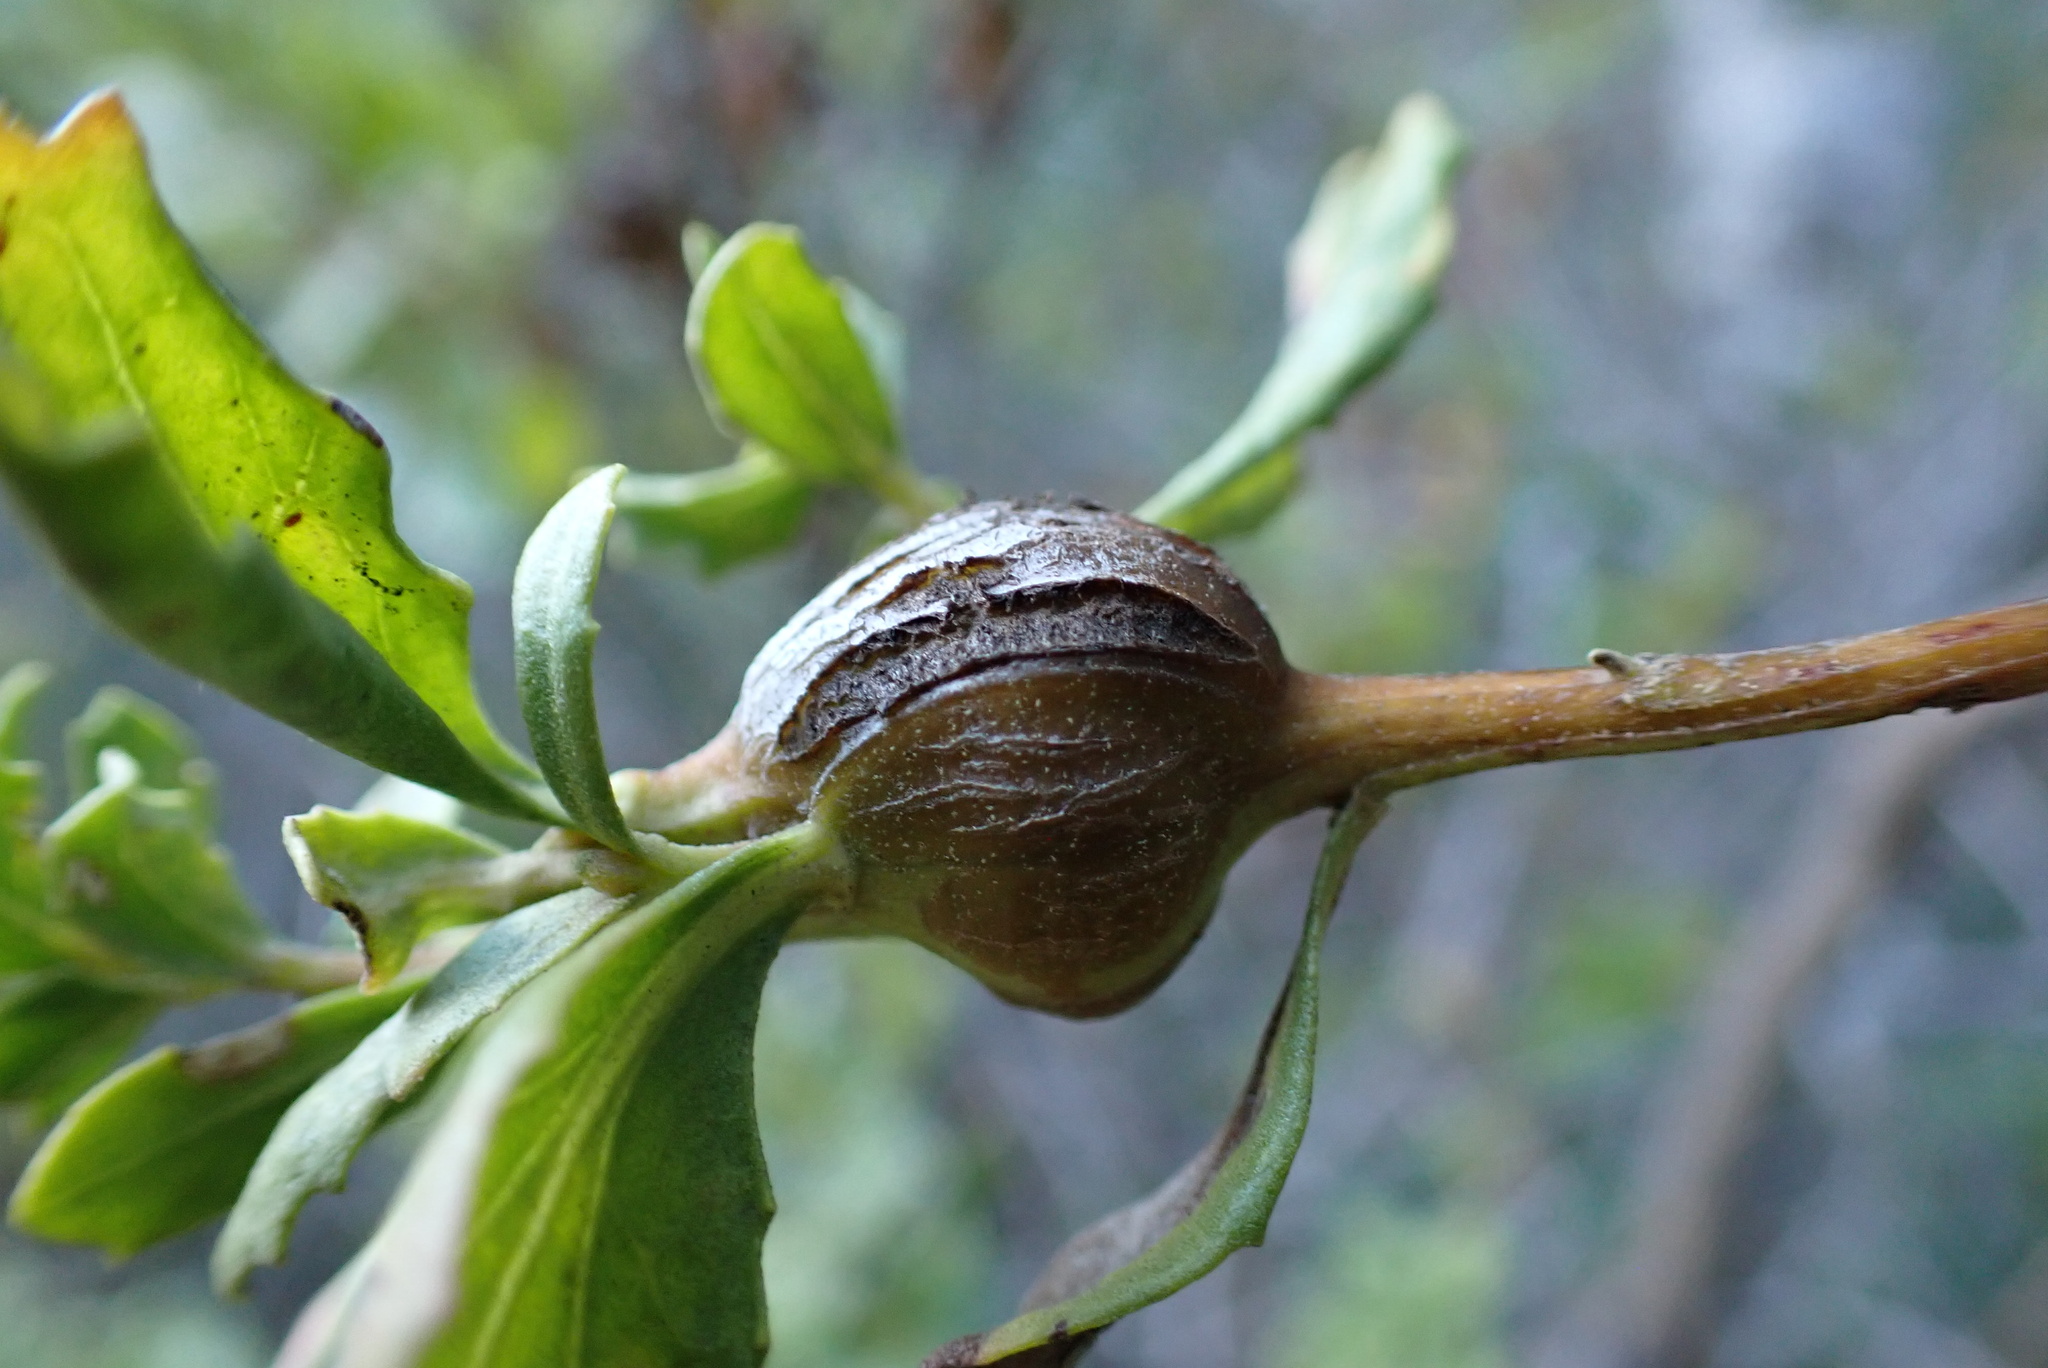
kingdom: Animalia
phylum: Arthropoda
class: Insecta
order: Lepidoptera
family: Gelechiidae
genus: Gnorimoschema
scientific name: Gnorimoschema baccharisella
